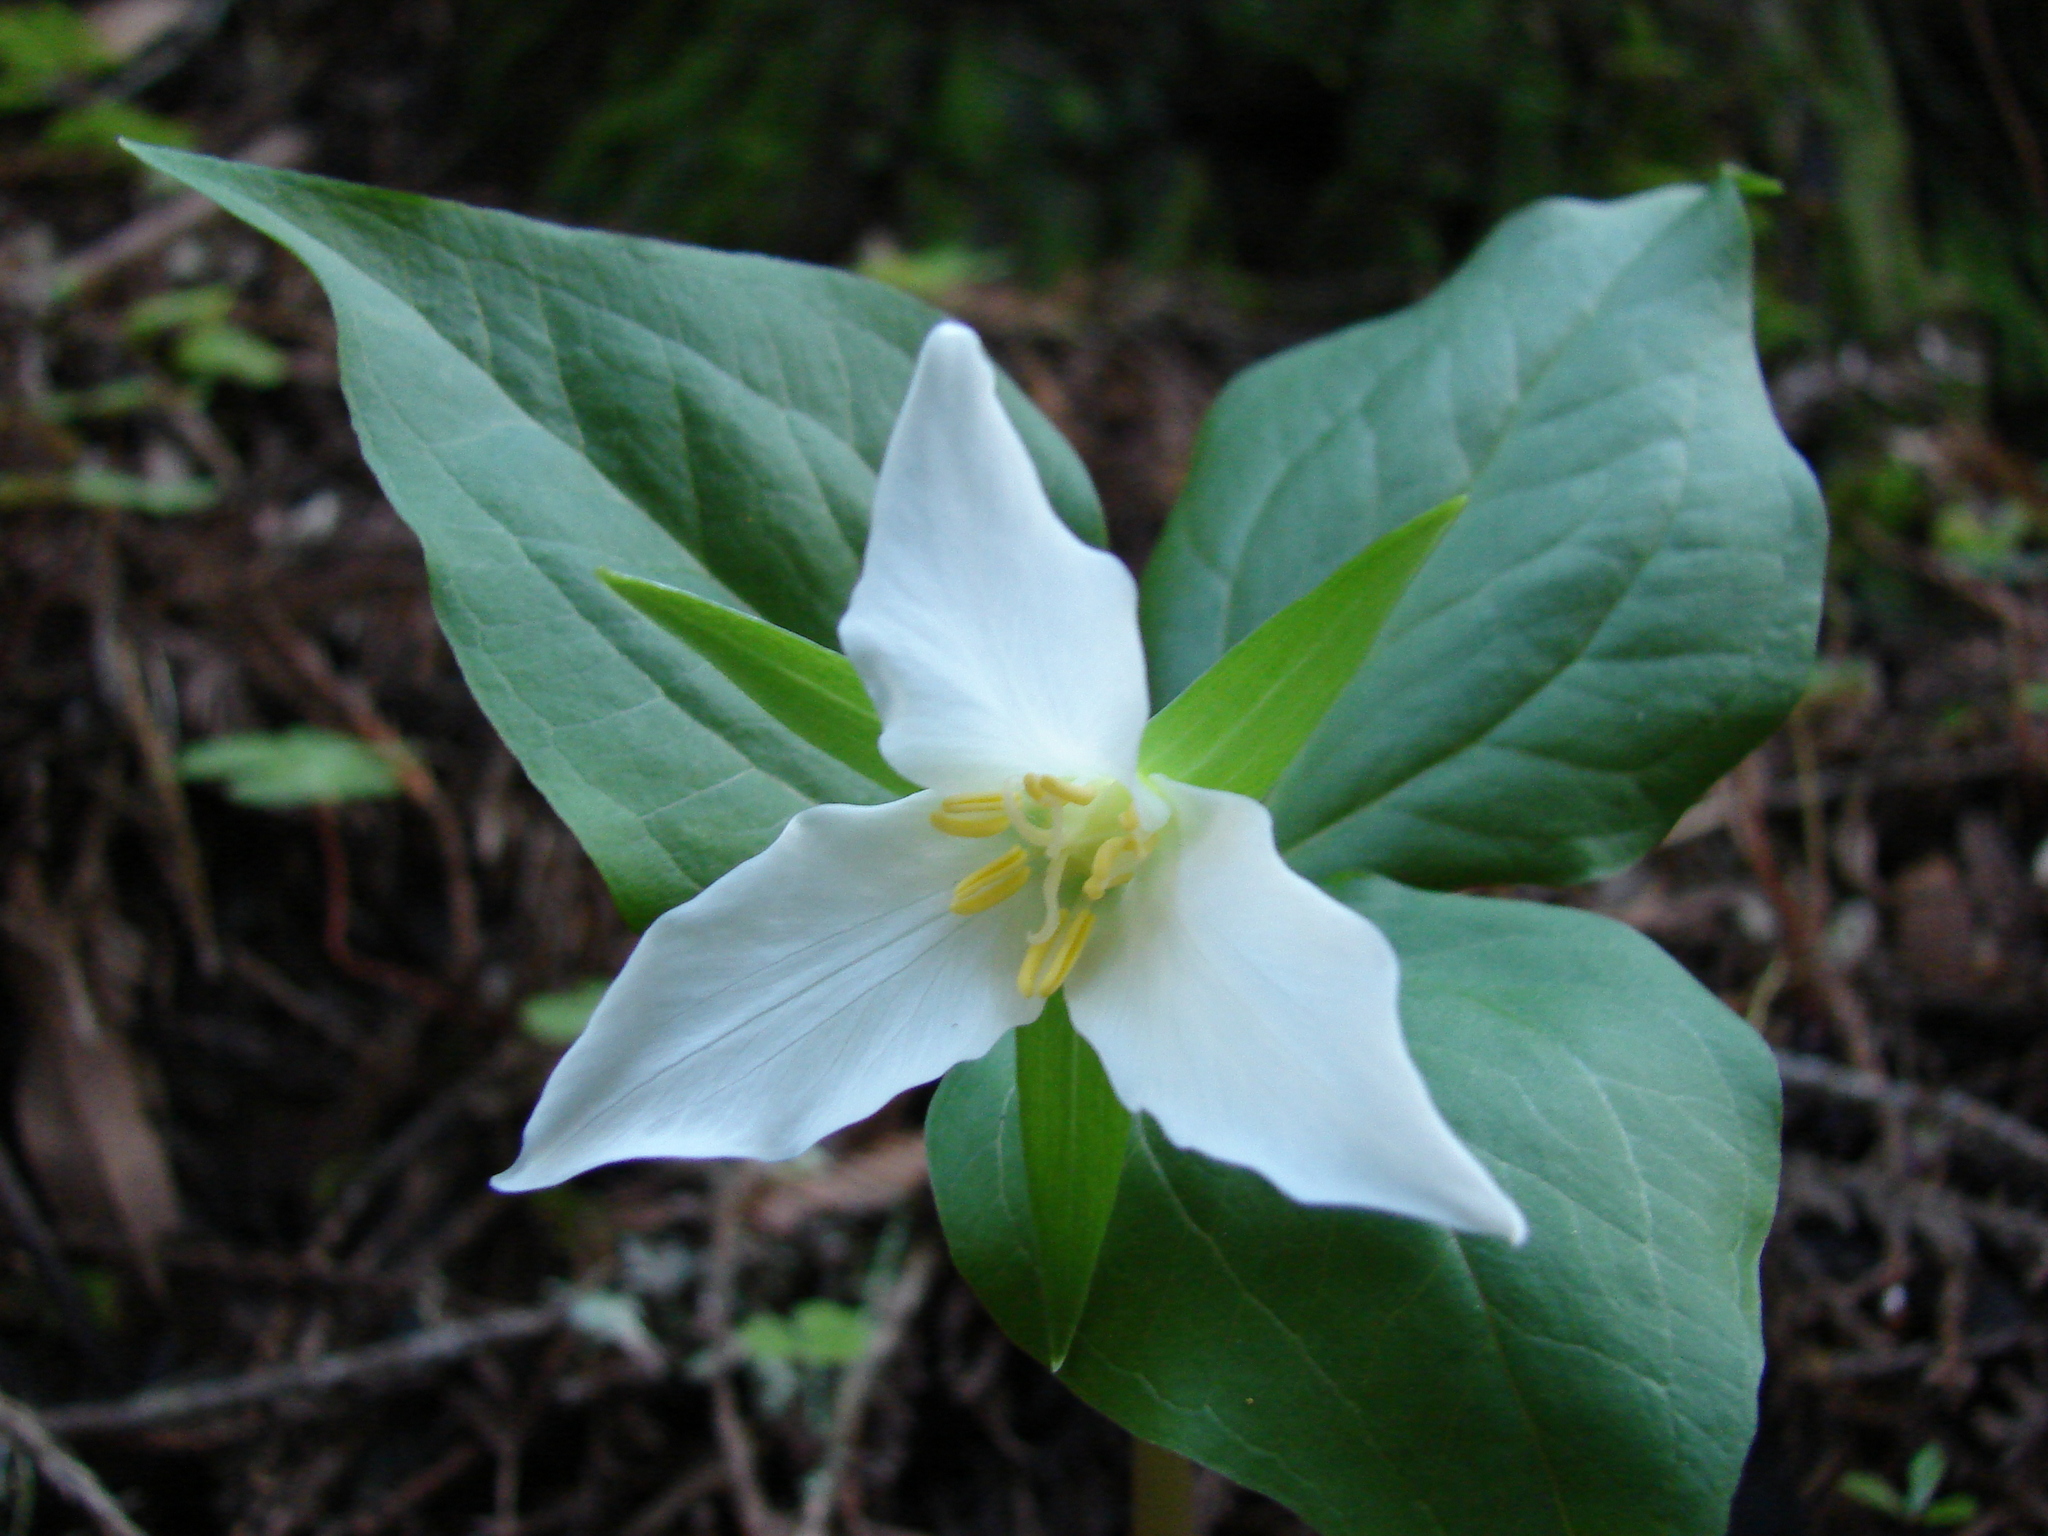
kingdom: Plantae
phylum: Tracheophyta
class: Liliopsida
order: Liliales
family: Melanthiaceae
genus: Trillium
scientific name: Trillium ovatum
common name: Pacific trillium
